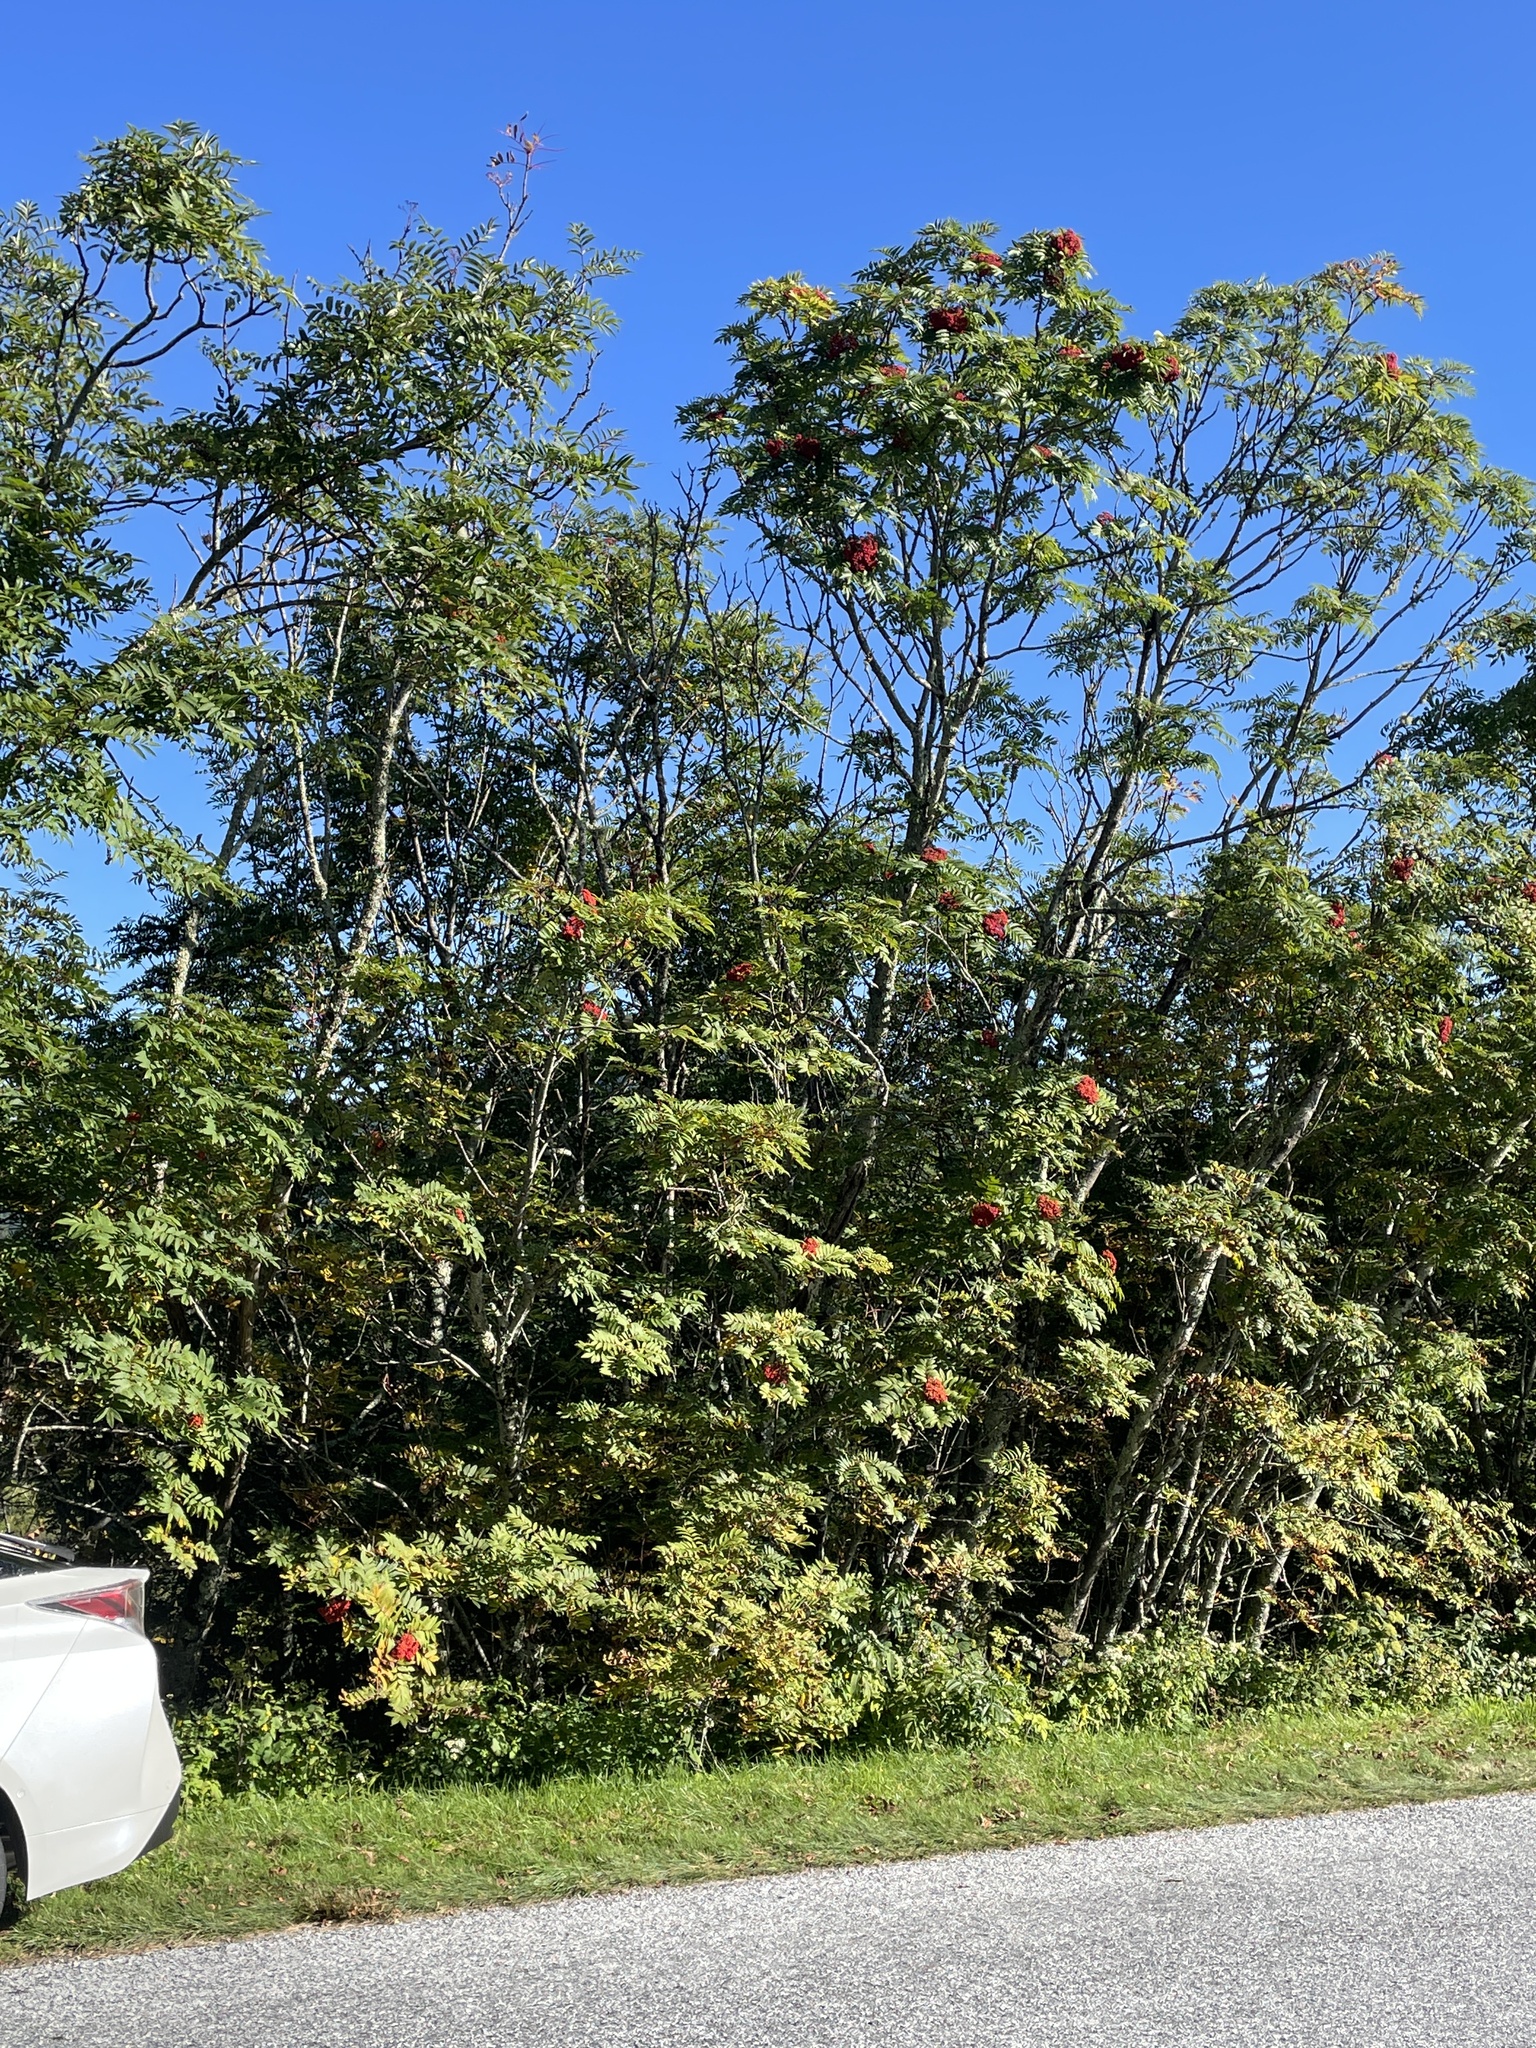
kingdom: Plantae
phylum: Tracheophyta
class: Magnoliopsida
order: Rosales
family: Rosaceae
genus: Sorbus
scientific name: Sorbus americana
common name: American mountain-ash
